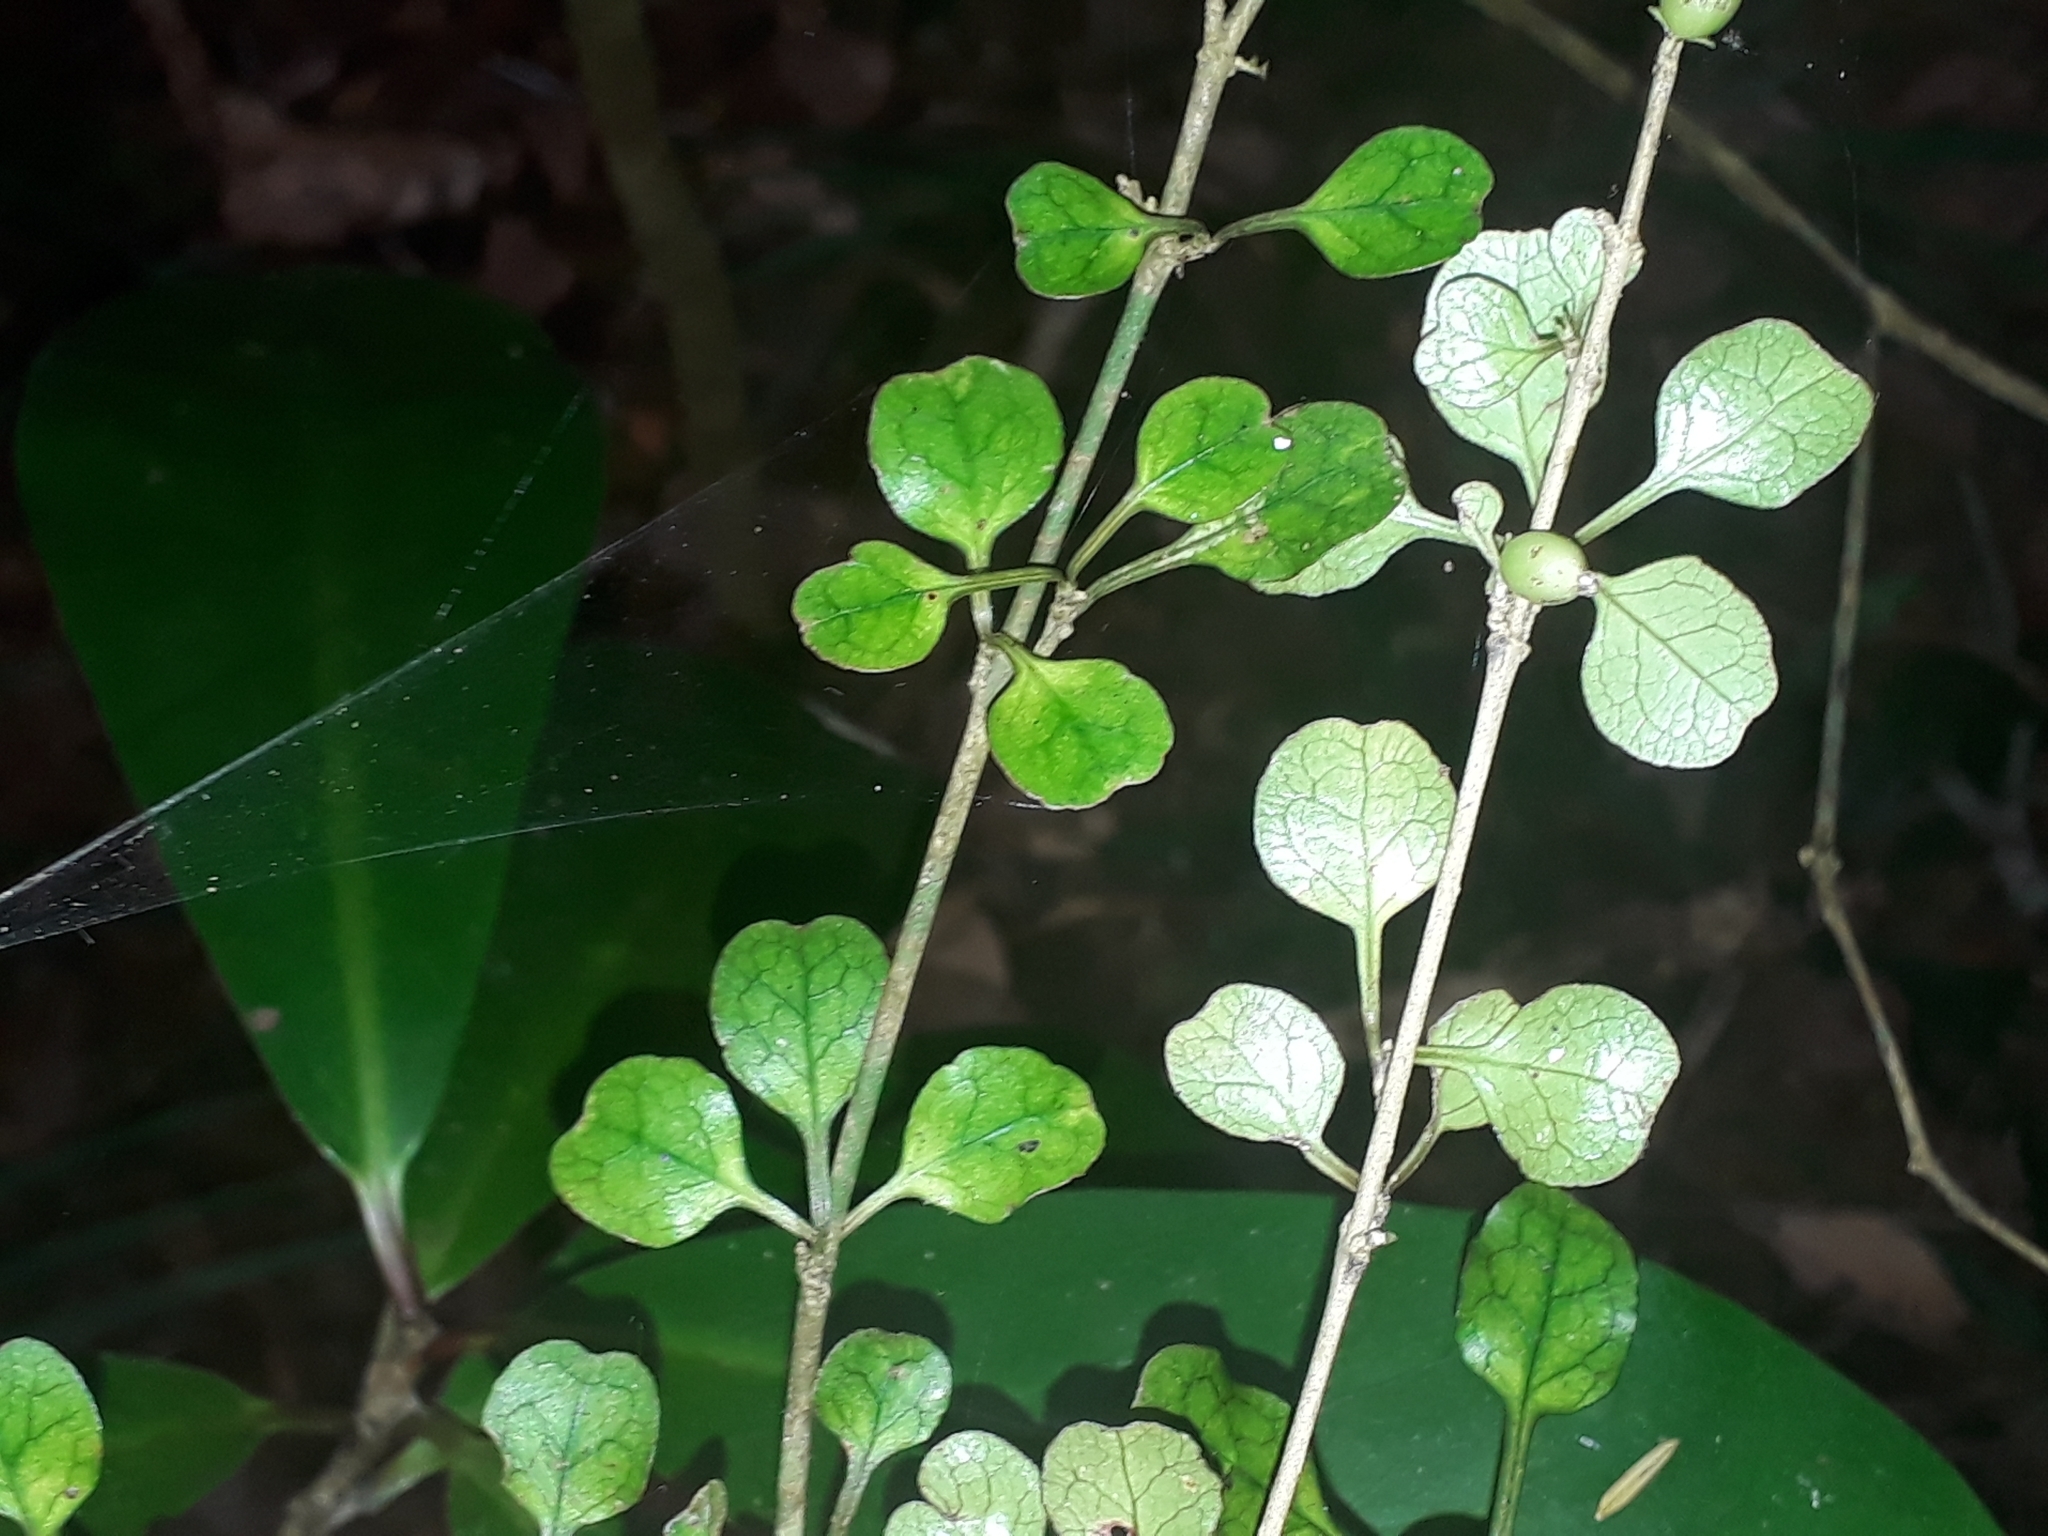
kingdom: Plantae
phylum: Tracheophyta
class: Magnoliopsida
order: Gentianales
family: Rubiaceae
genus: Coprosma
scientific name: Coprosma spathulata
